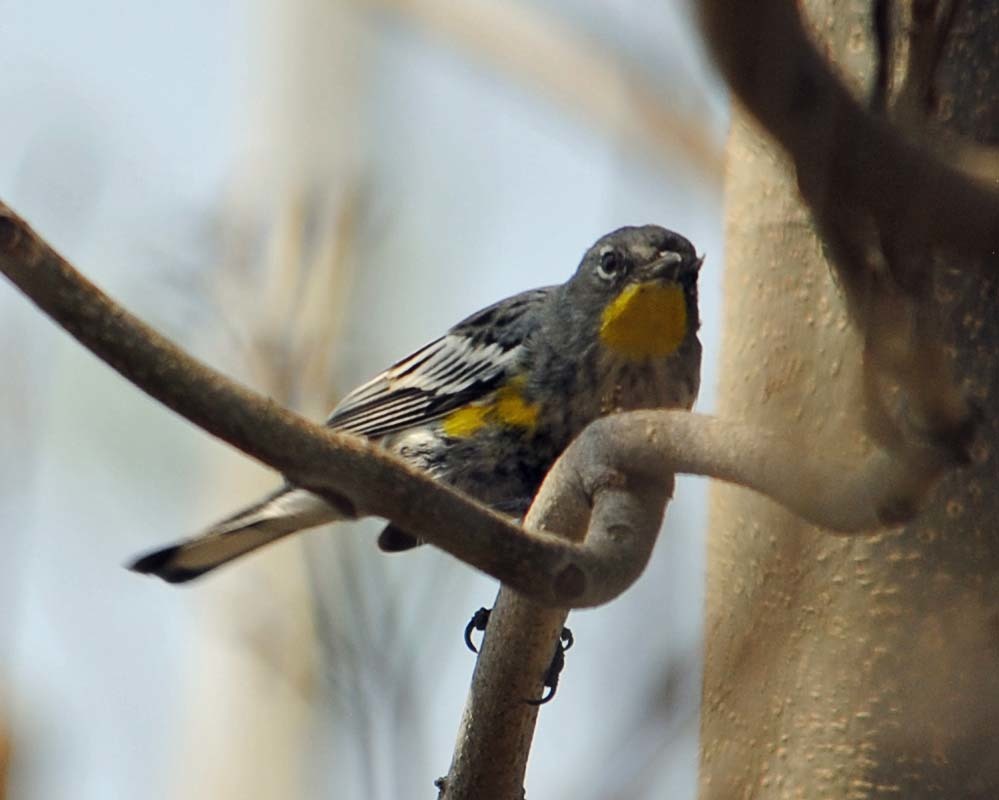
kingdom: Animalia
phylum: Chordata
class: Aves
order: Passeriformes
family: Parulidae
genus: Setophaga
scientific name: Setophaga auduboni
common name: Audubon's warbler
